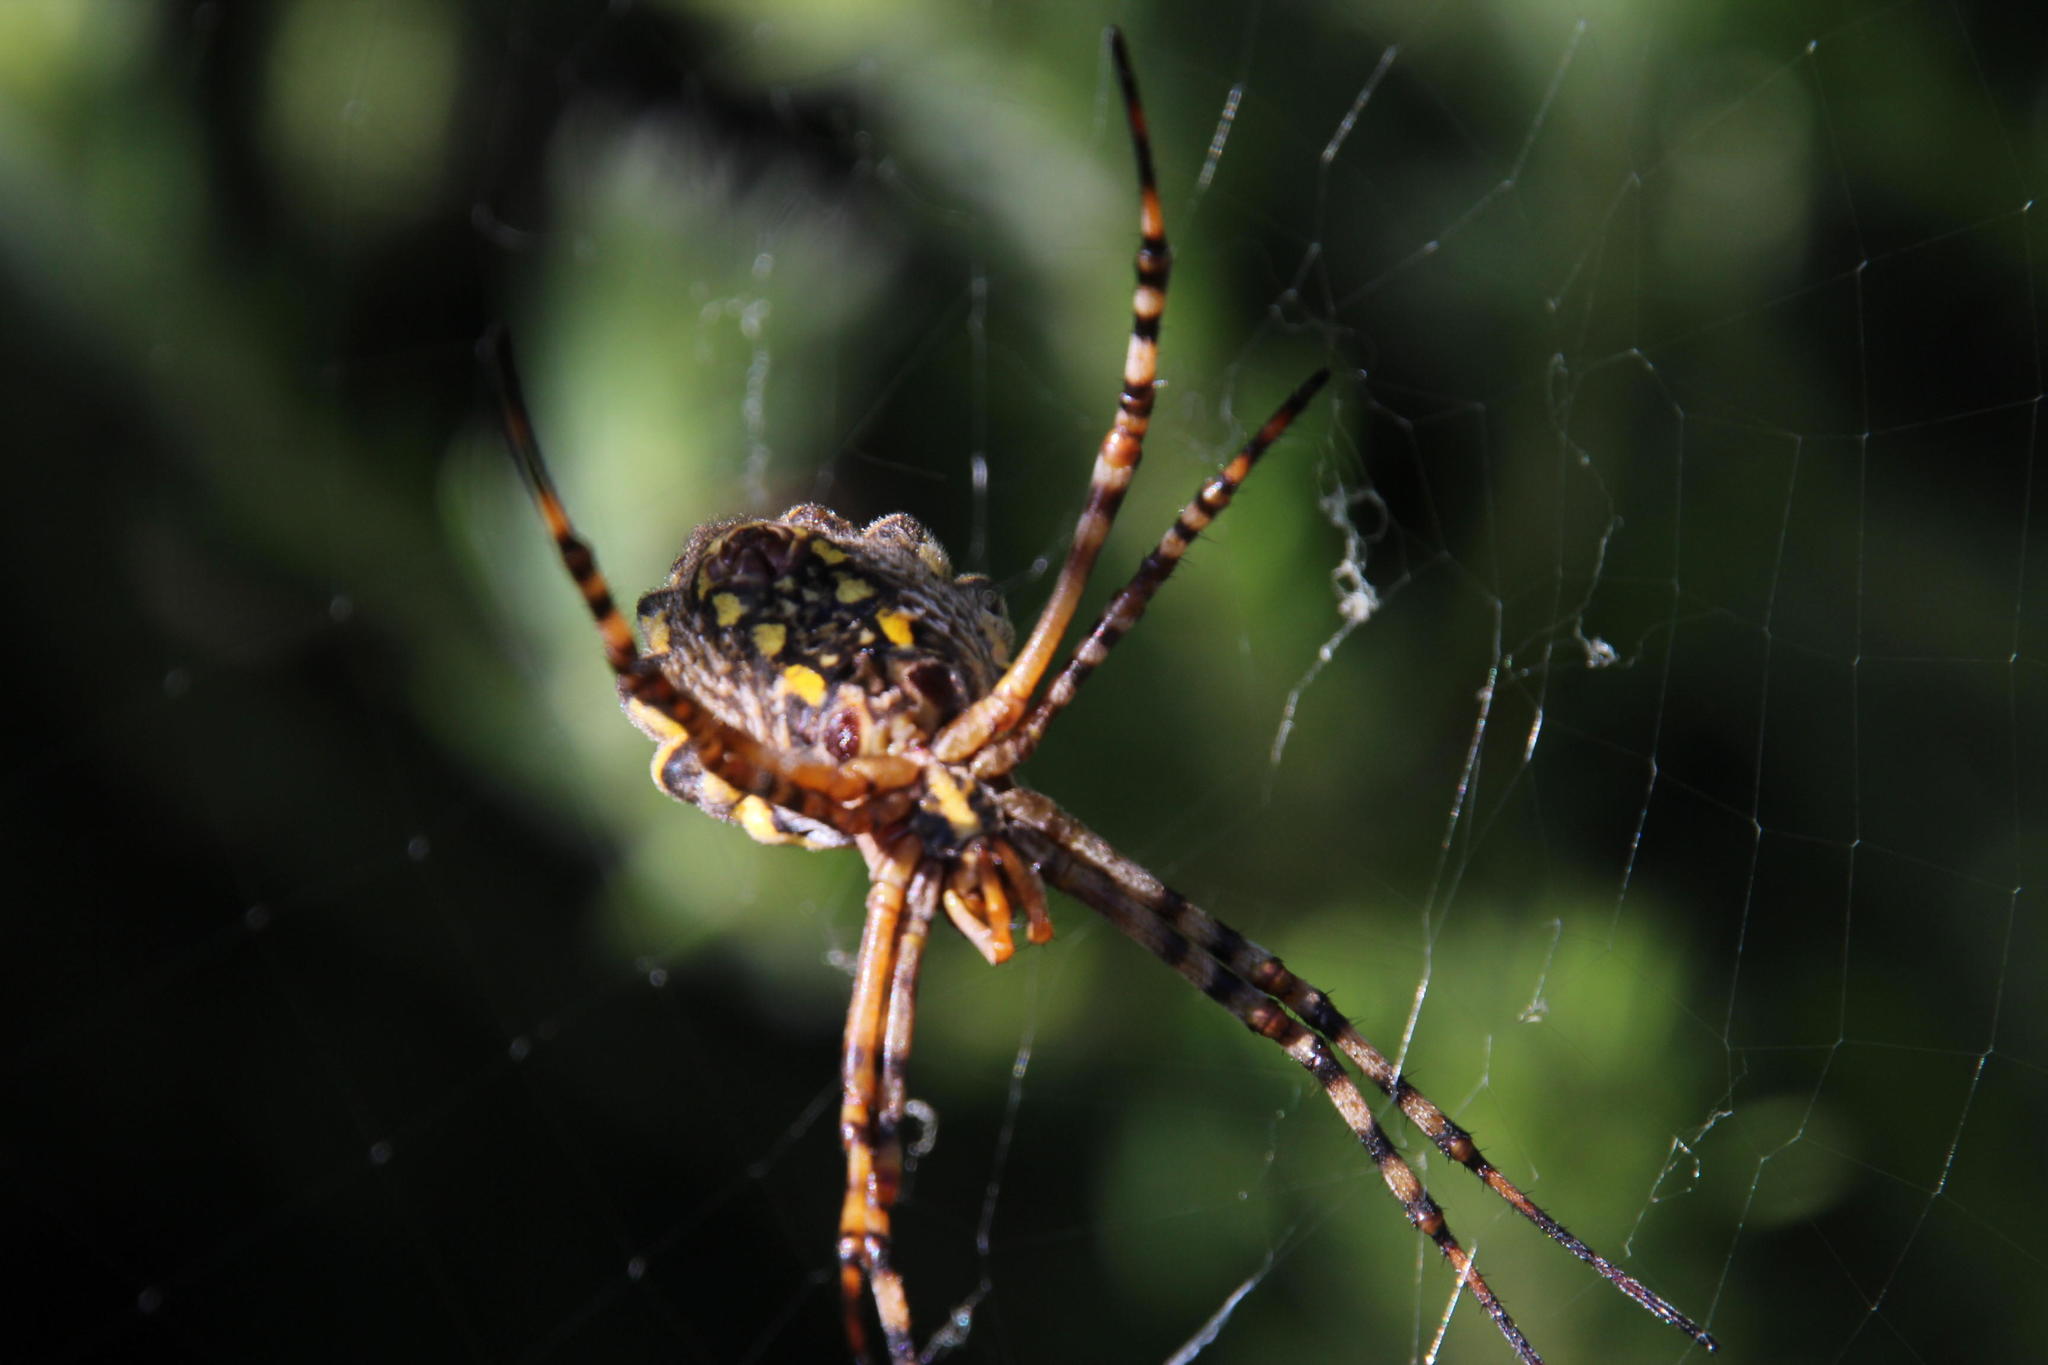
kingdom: Animalia
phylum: Arthropoda
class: Arachnida
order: Araneae
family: Araneidae
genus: Argiope
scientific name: Argiope australis
